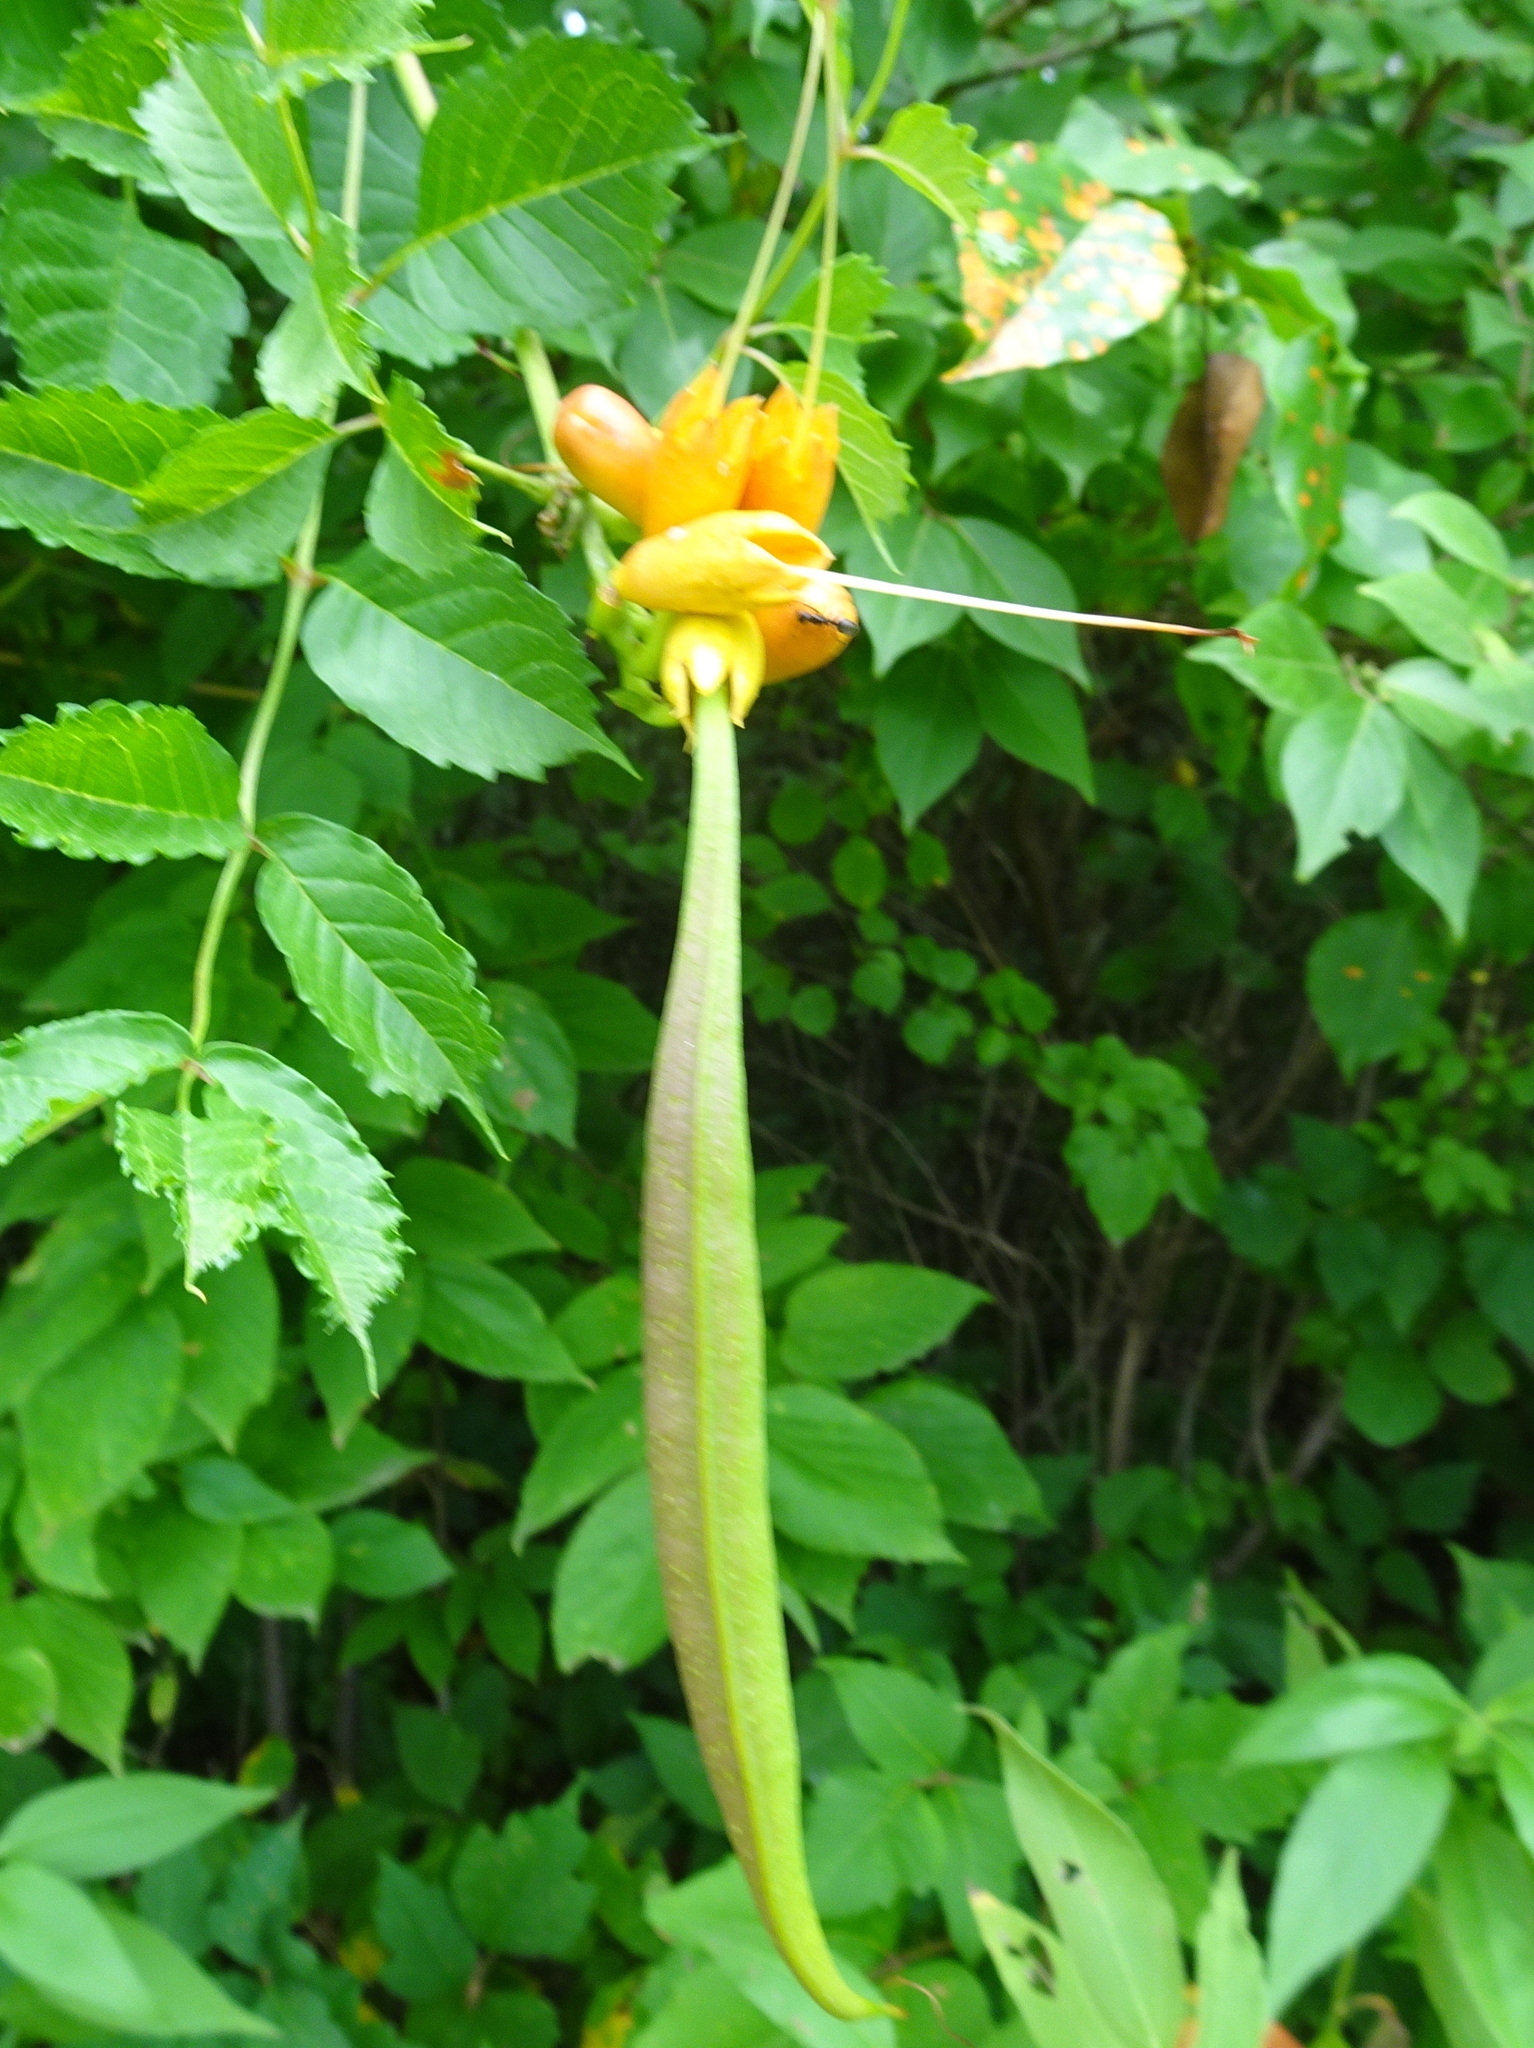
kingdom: Plantae
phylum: Tracheophyta
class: Magnoliopsida
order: Lamiales
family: Bignoniaceae
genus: Campsis
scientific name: Campsis radicans
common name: Trumpet-creeper
